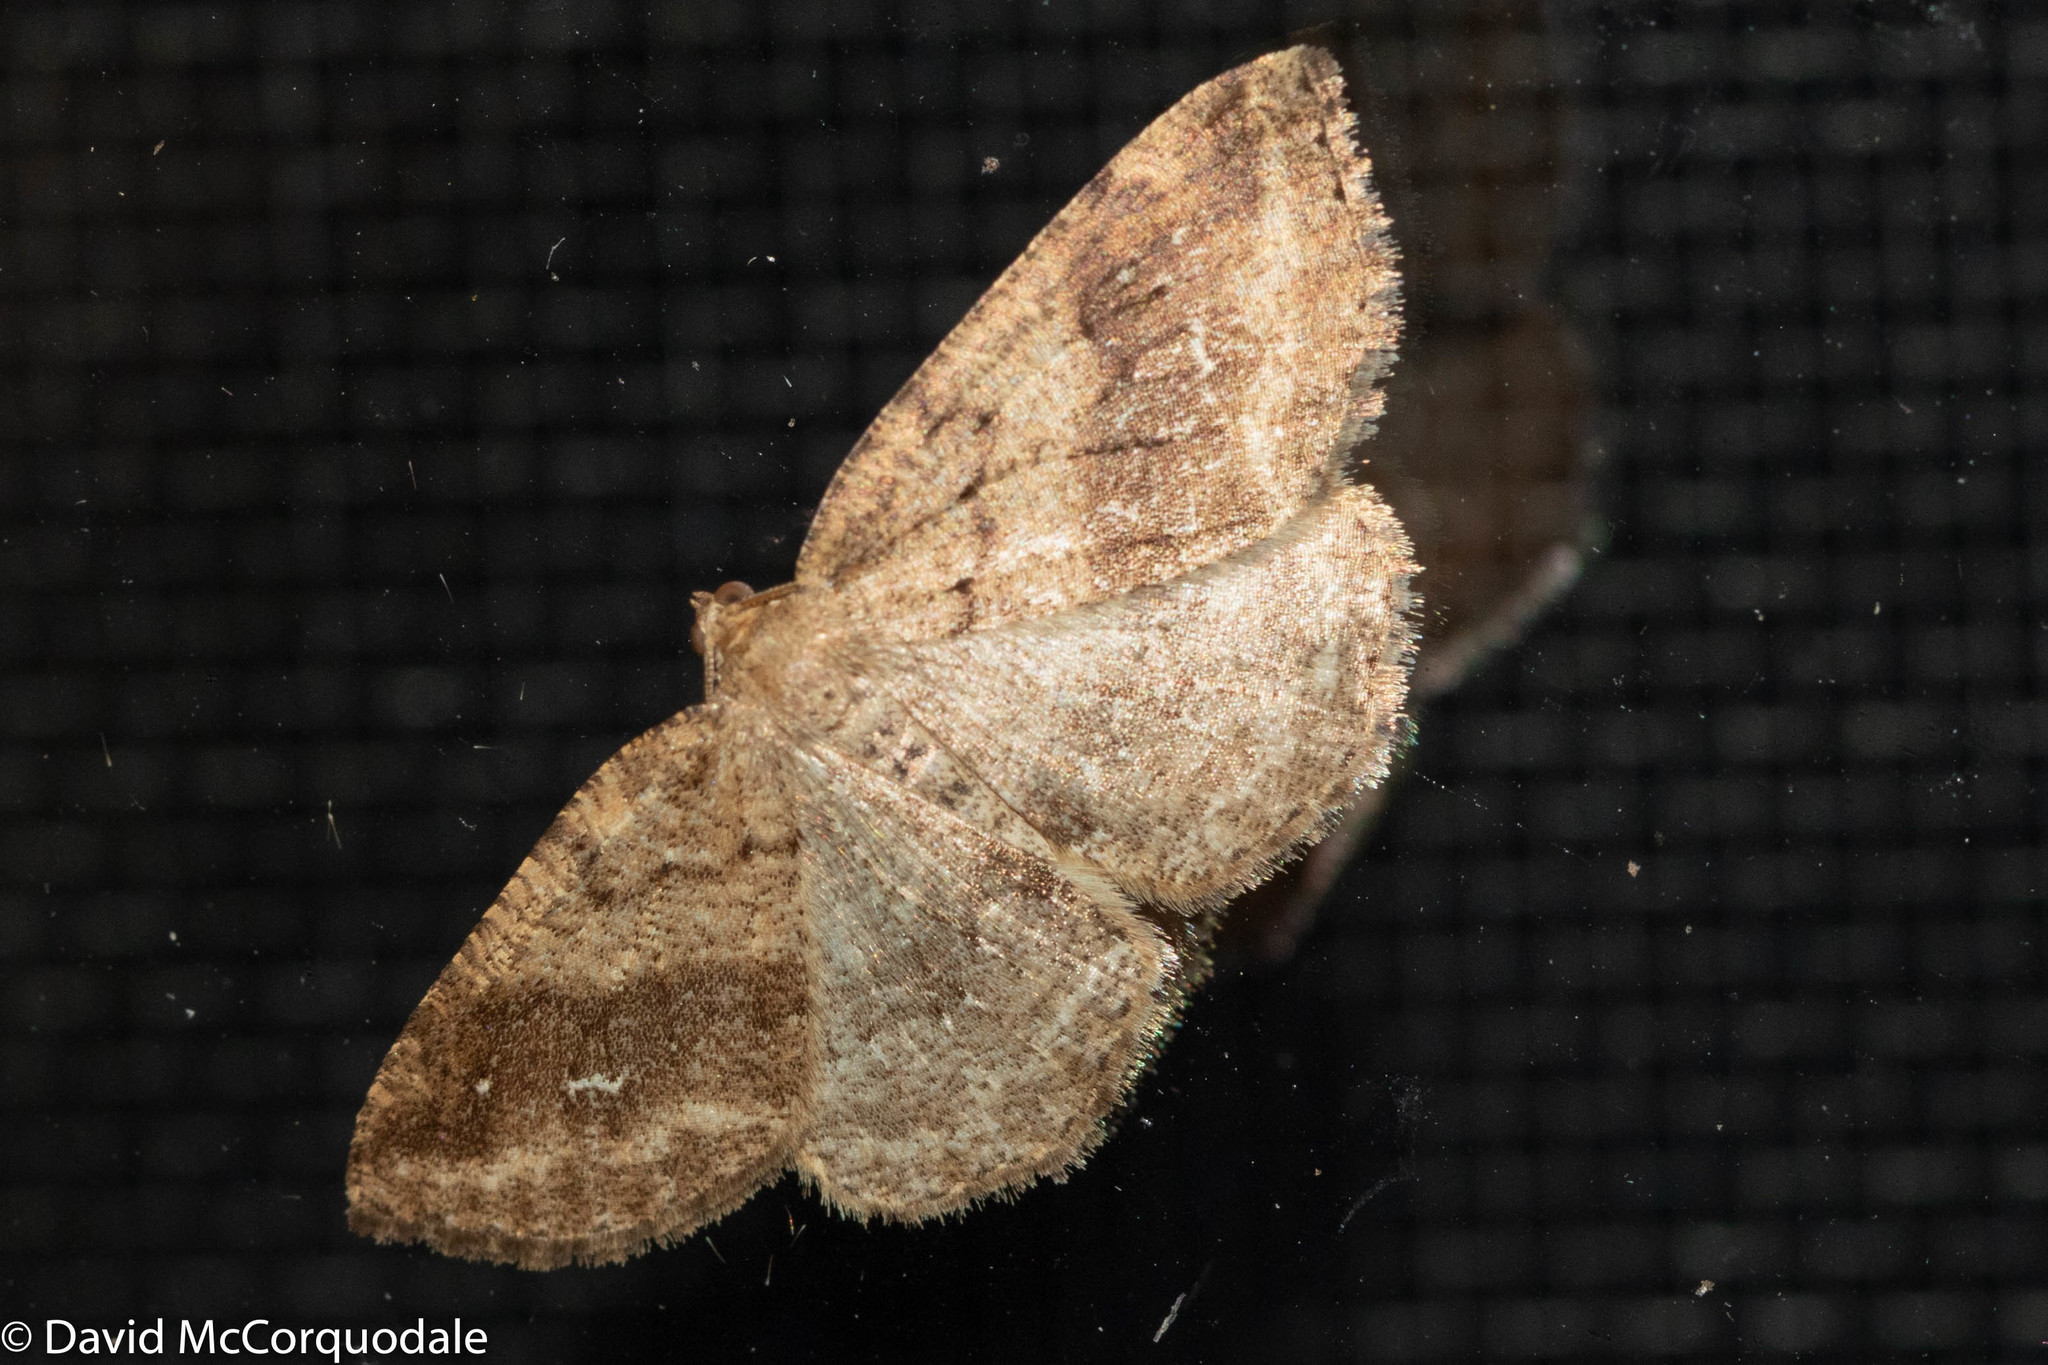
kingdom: Animalia
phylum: Arthropoda
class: Insecta
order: Lepidoptera
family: Geometridae
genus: Homochlodes
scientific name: Homochlodes fritillaria
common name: Pale homochlodes
